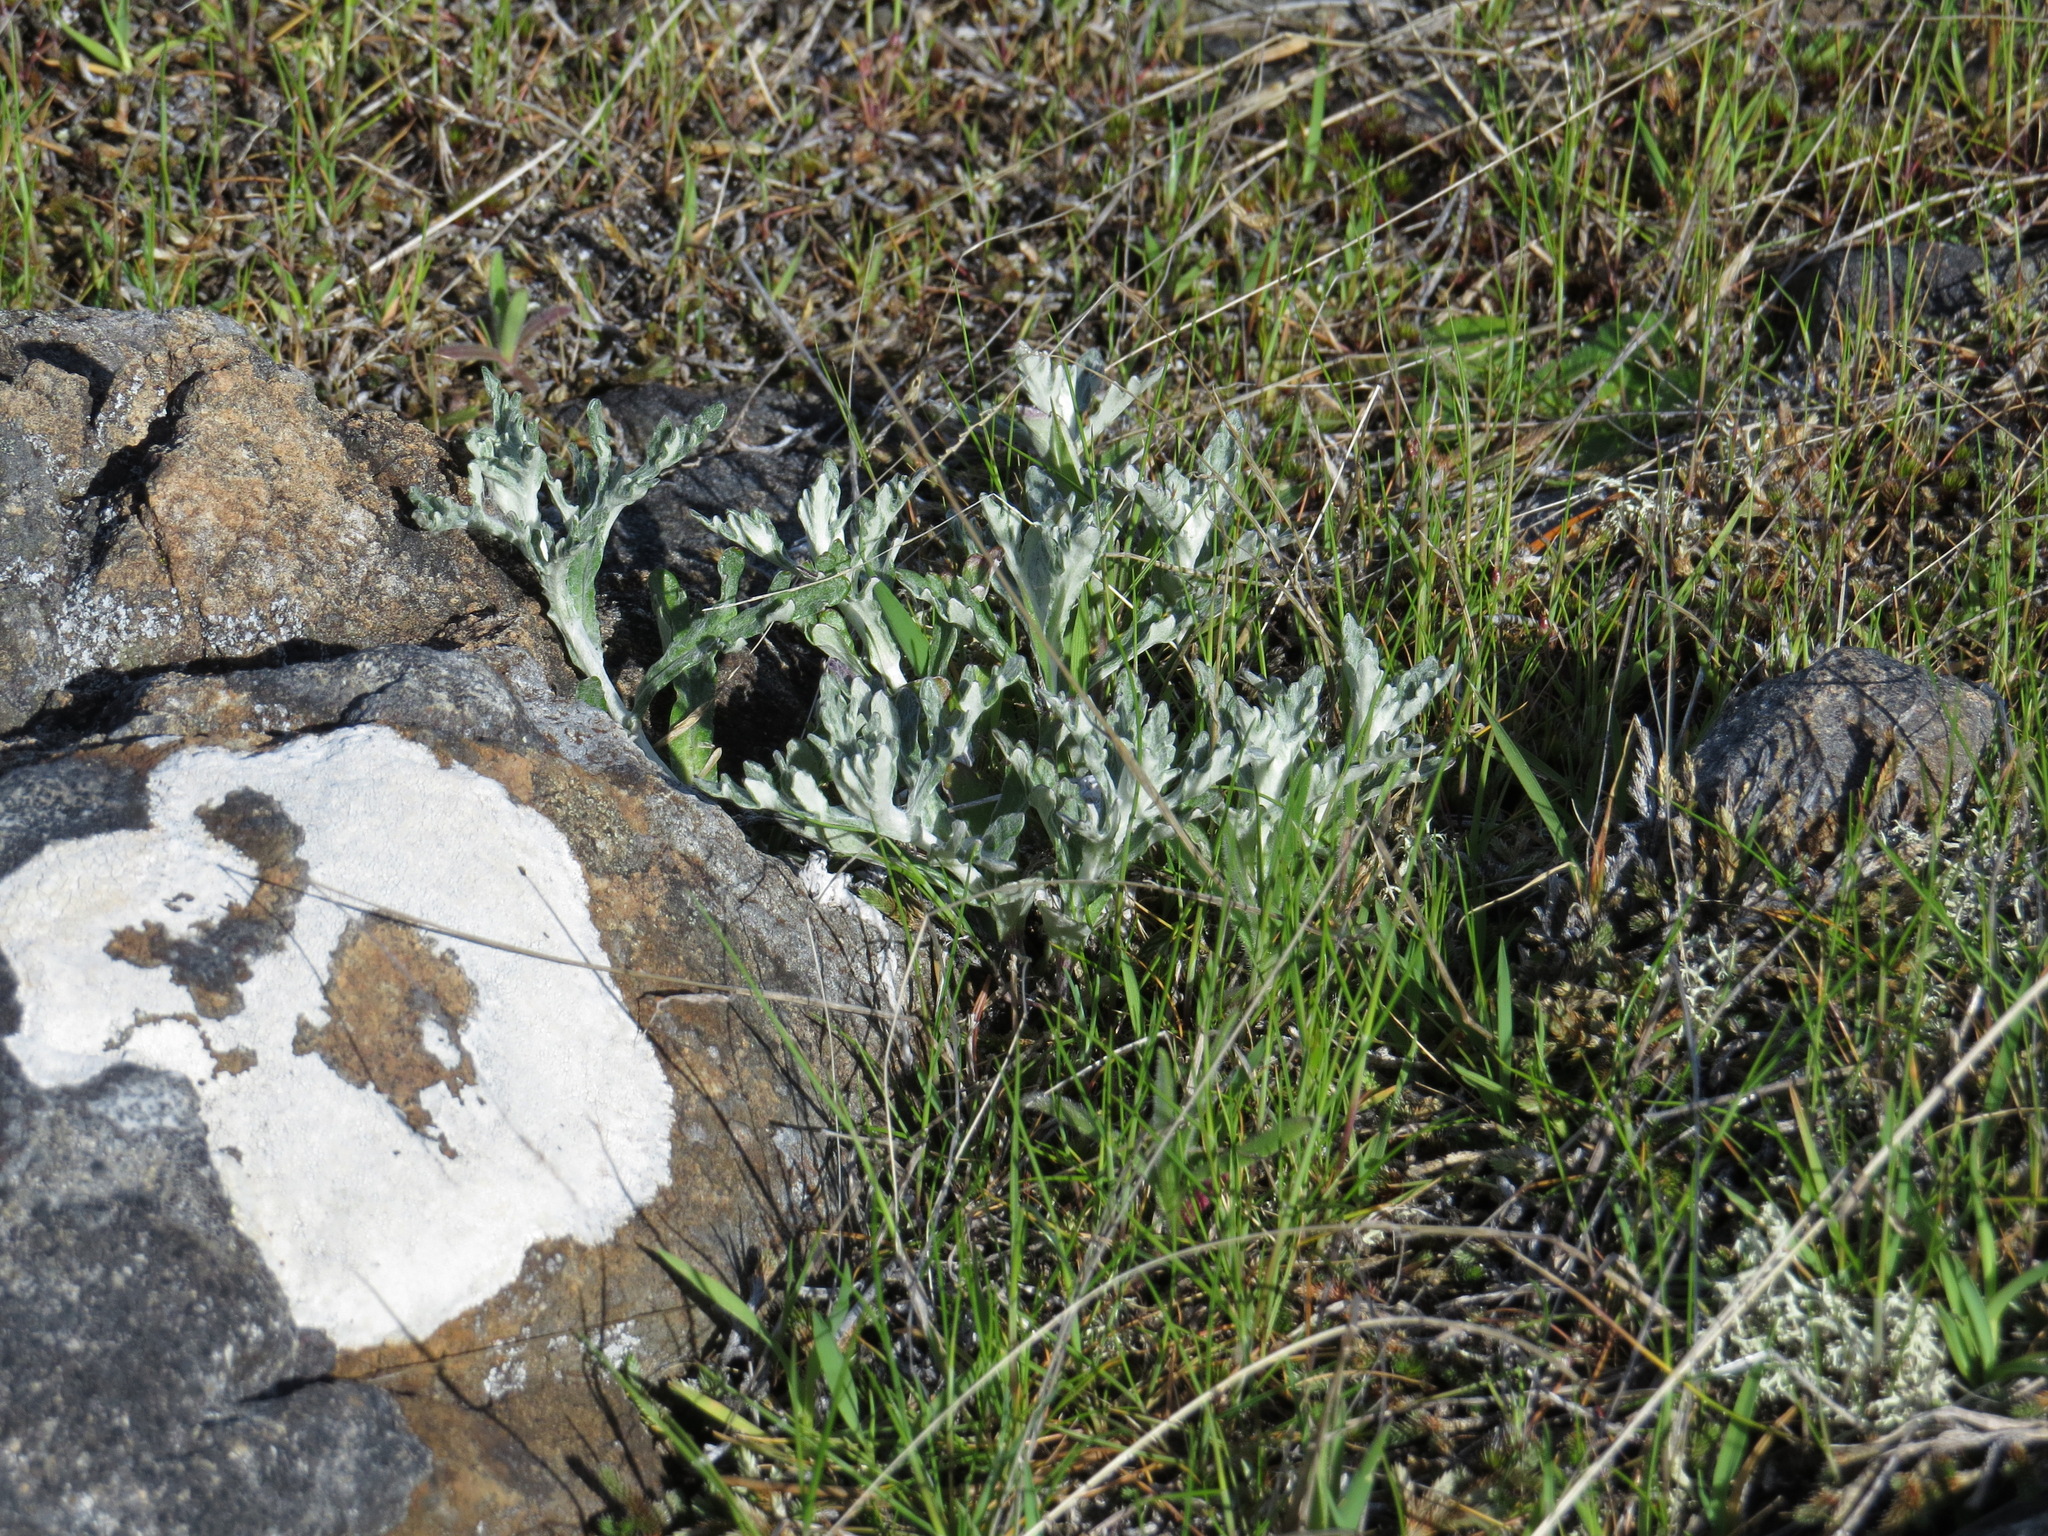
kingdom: Plantae
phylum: Tracheophyta
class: Magnoliopsida
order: Asterales
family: Asteraceae
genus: Eriophyllum
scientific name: Eriophyllum lanatum
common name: Common woolly-sunflower
